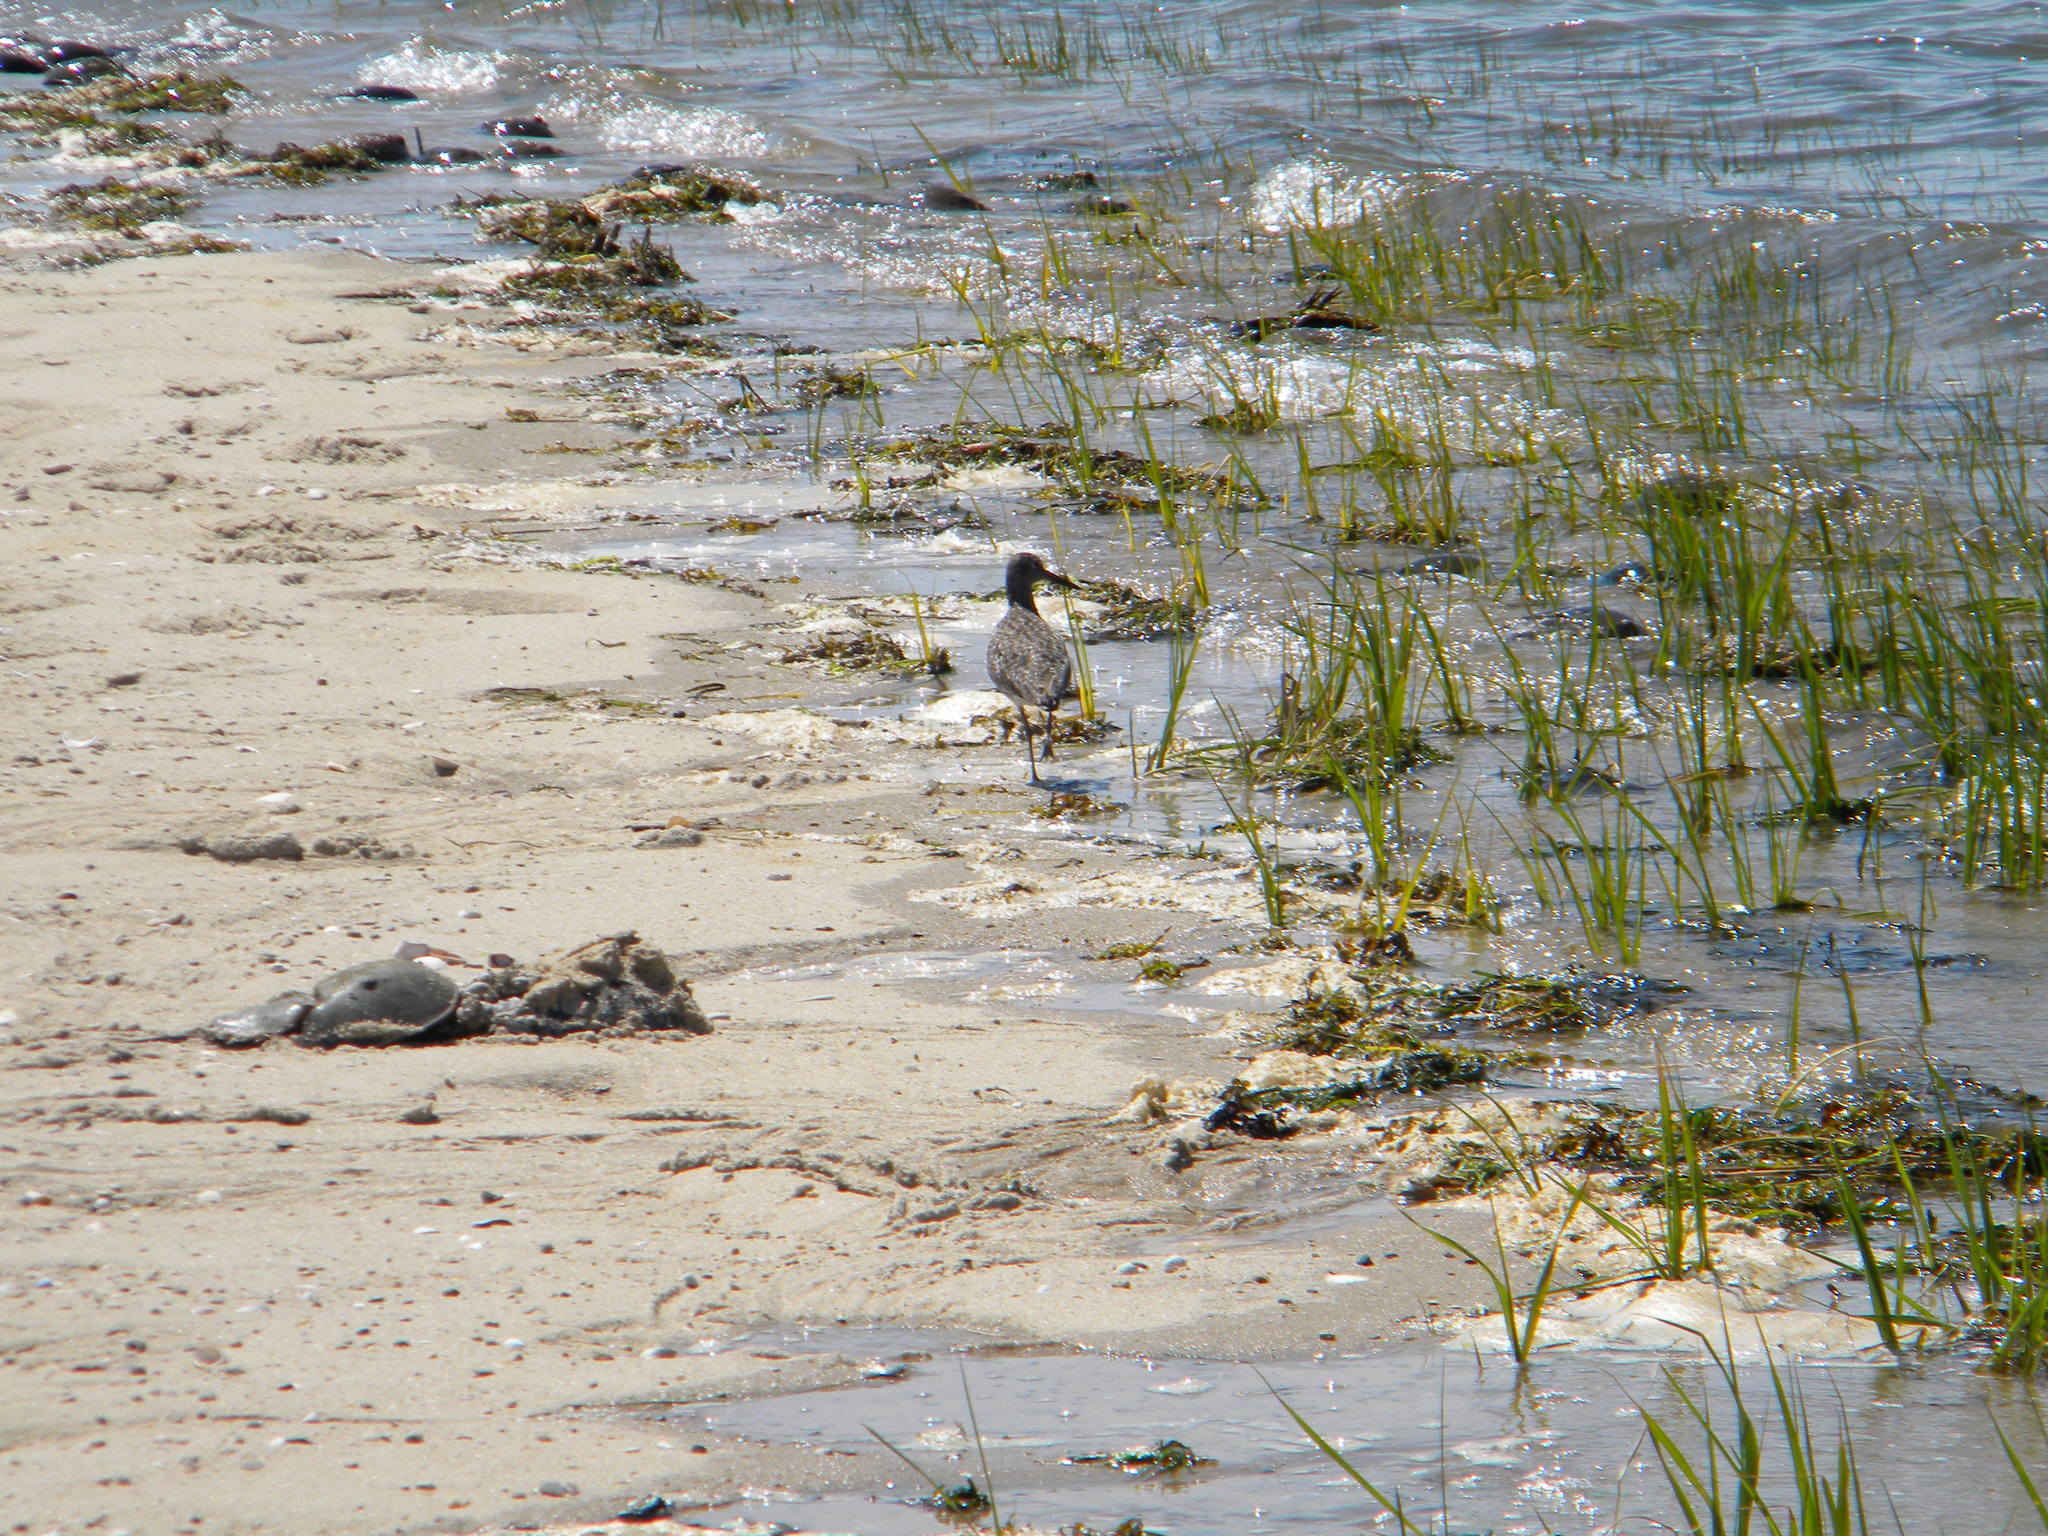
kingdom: Animalia
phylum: Chordata
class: Aves
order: Charadriiformes
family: Scolopacidae
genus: Tringa
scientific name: Tringa semipalmata
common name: Willet
